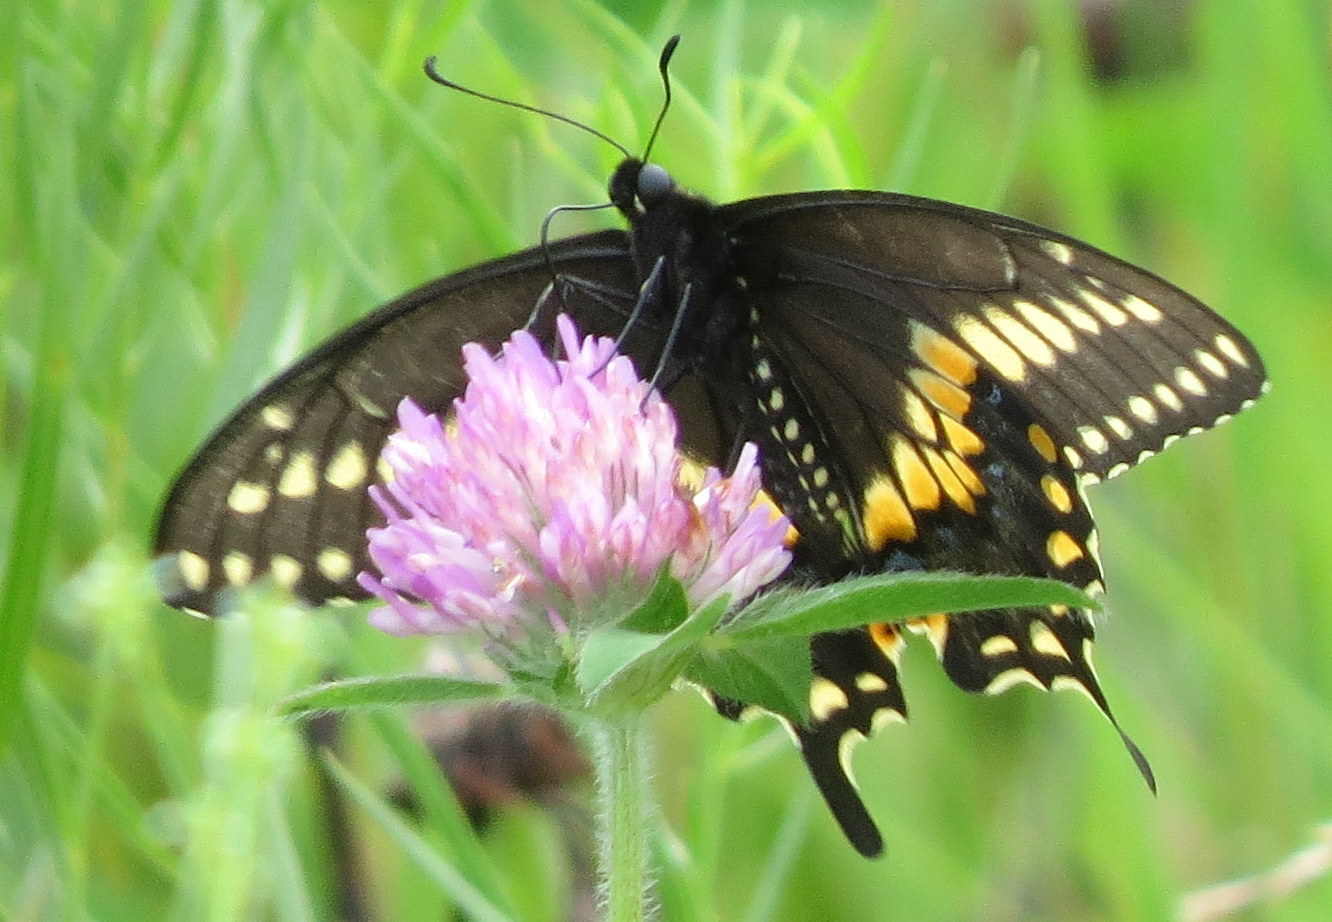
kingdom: Animalia
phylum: Arthropoda
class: Insecta
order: Lepidoptera
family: Papilionidae
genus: Papilio
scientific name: Papilio polyxenes
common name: Black swallowtail
